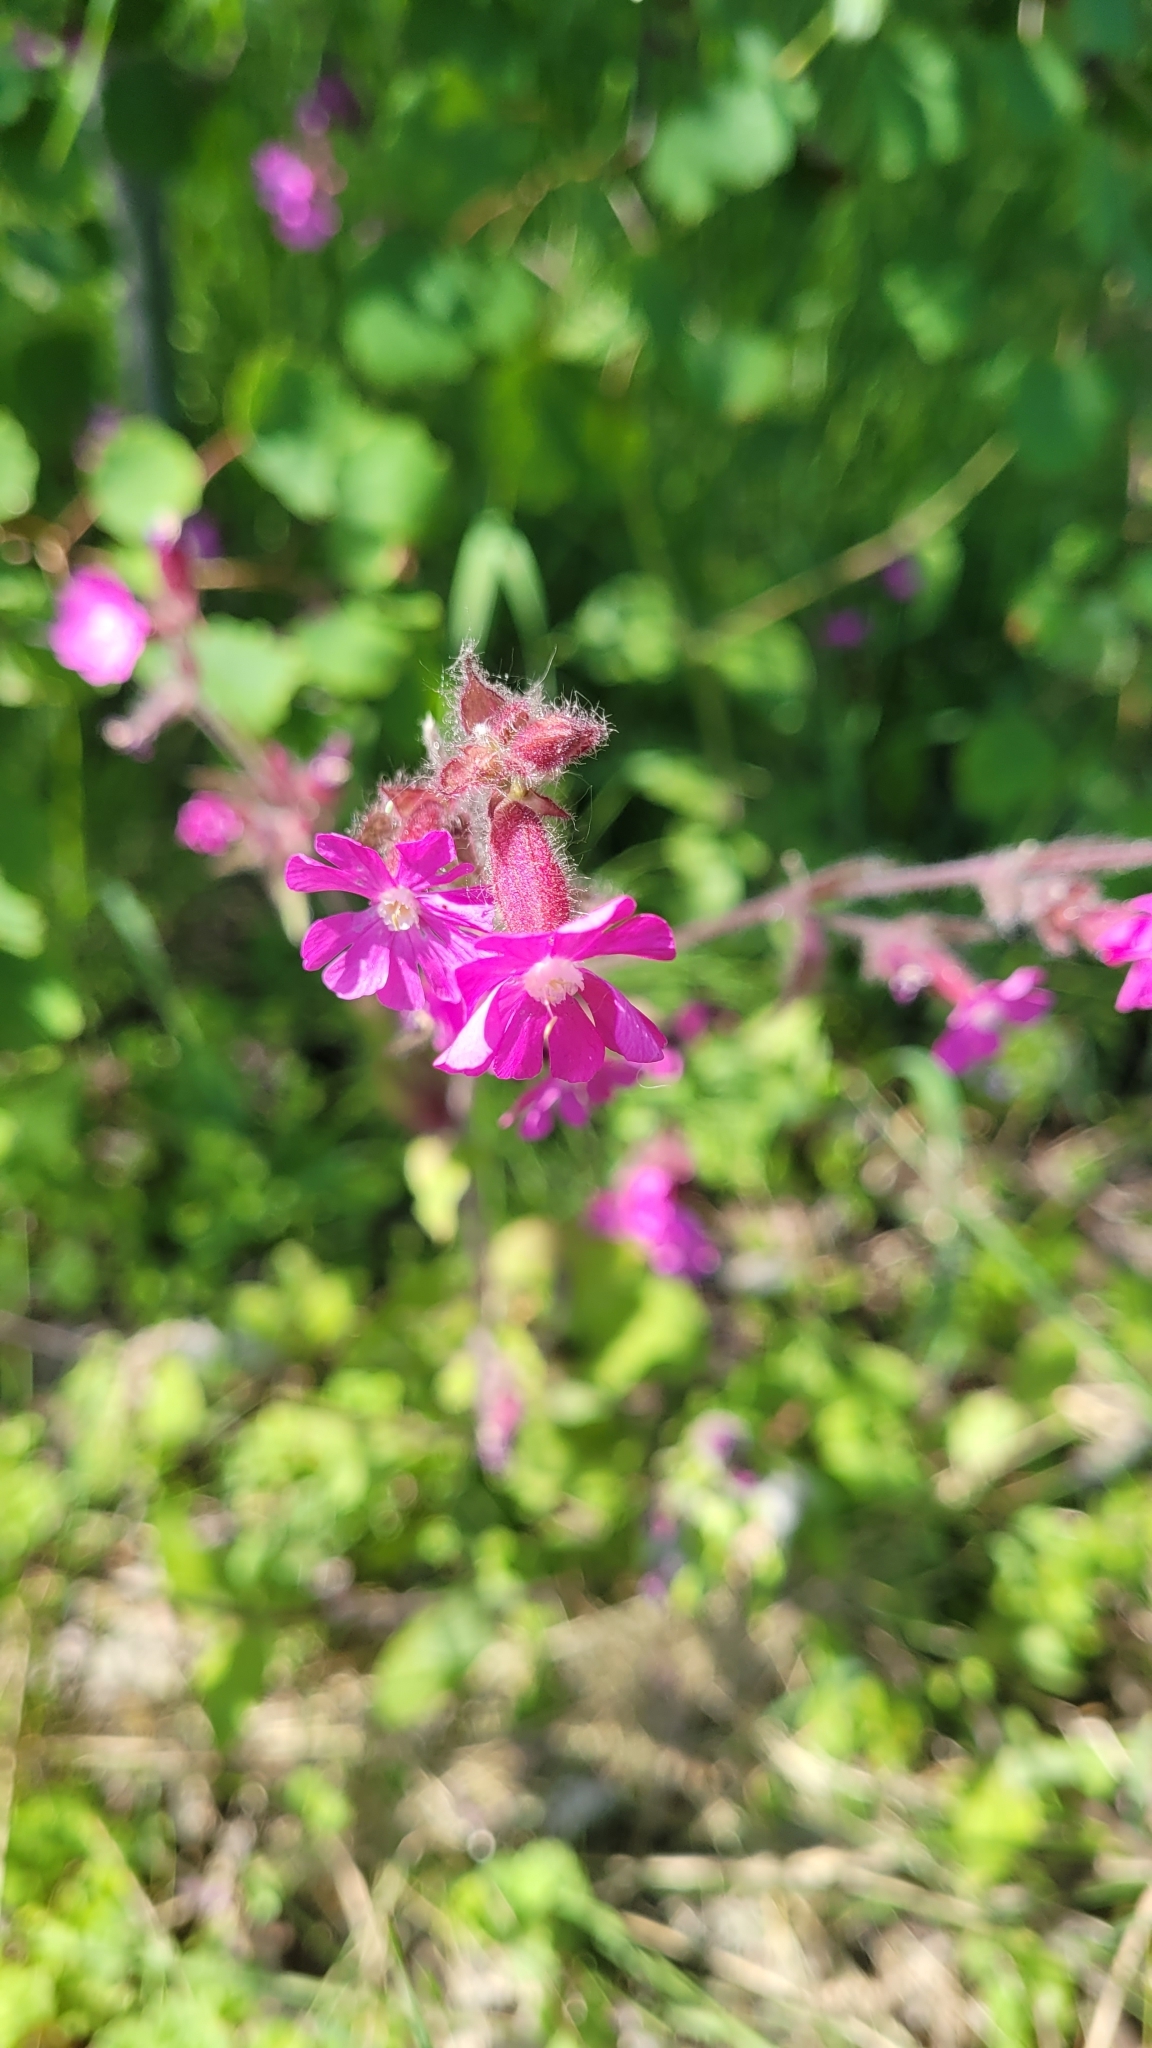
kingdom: Plantae
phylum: Tracheophyta
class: Magnoliopsida
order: Caryophyllales
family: Caryophyllaceae
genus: Silene
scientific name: Silene dioica
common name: Red campion
